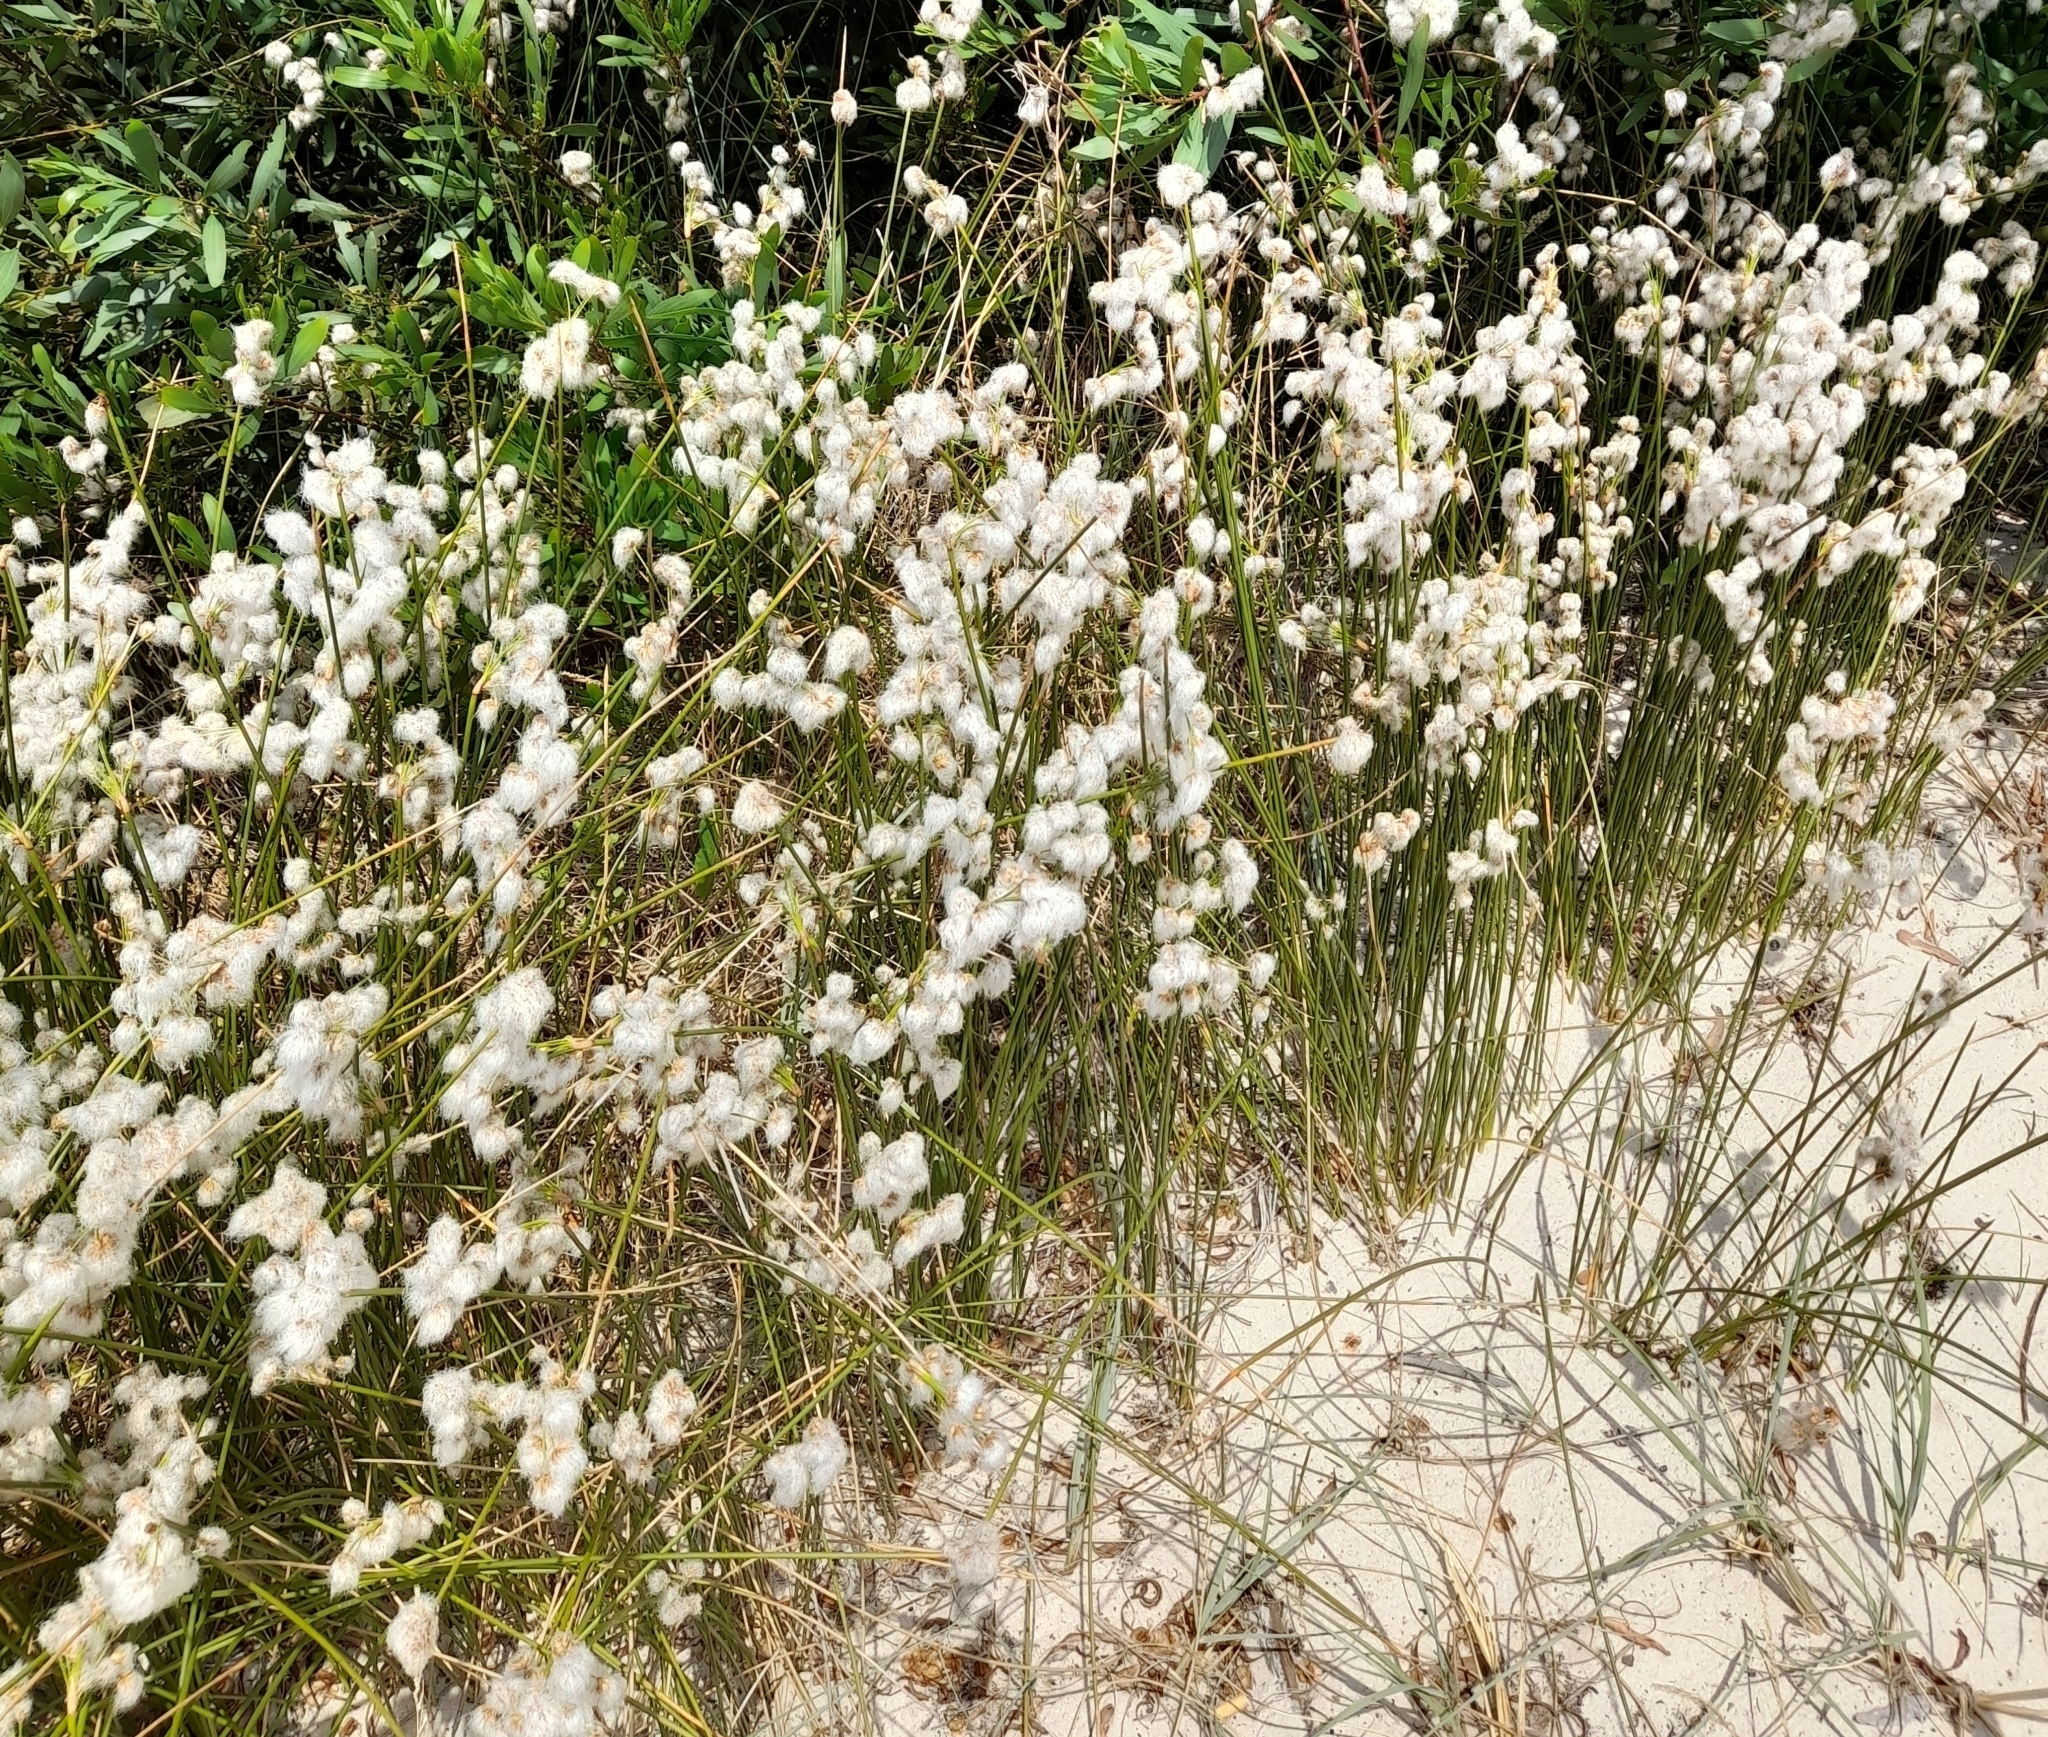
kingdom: Plantae
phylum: Tracheophyta
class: Liliopsida
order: Poales
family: Cyperaceae
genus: Cyperus
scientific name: Cyperus trigynus
